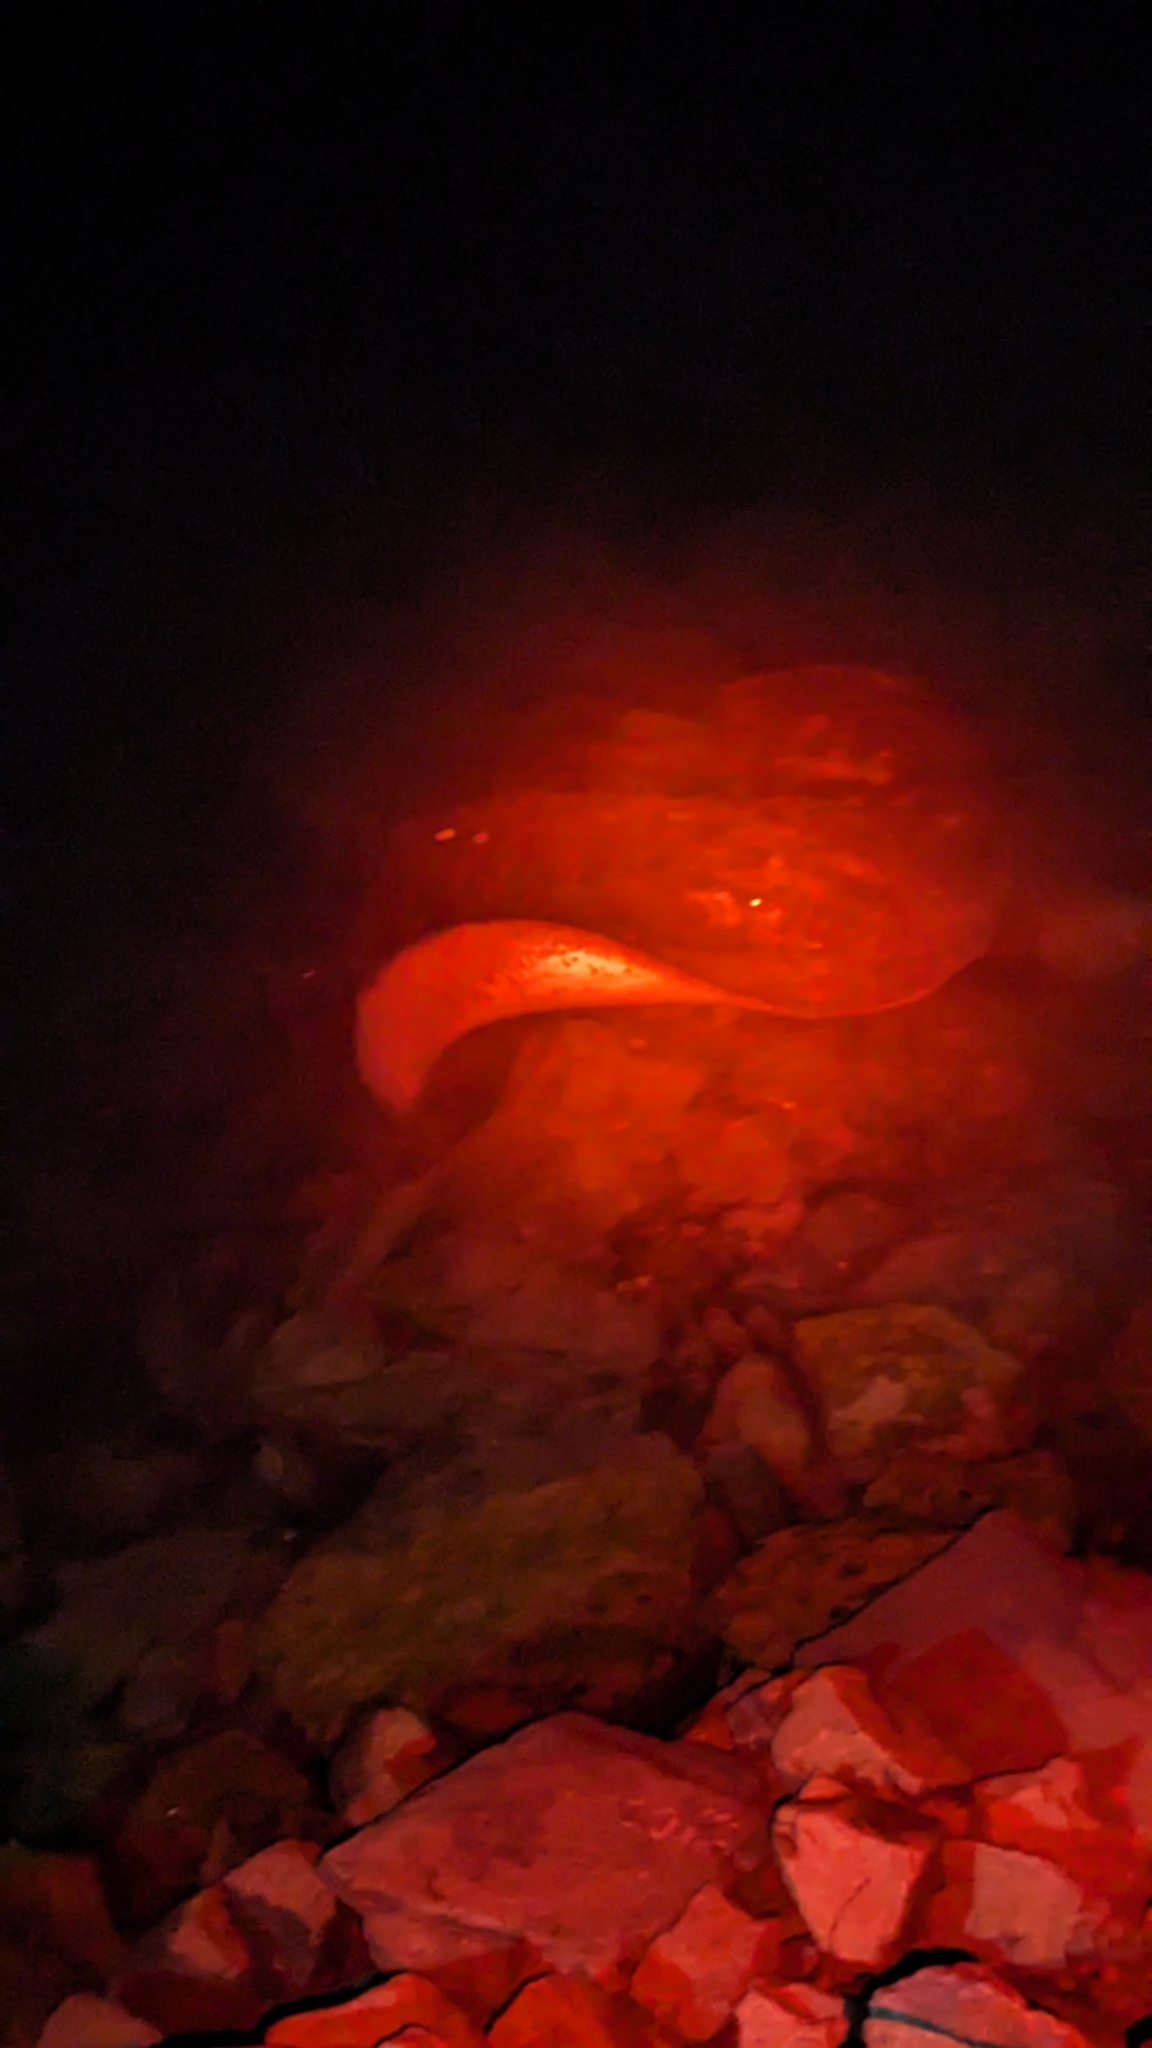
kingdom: Animalia
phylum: Chordata
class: Elasmobranchii
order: Myliobatiformes
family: Dasyatidae
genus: Bathytoshia
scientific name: Bathytoshia brevicaudata
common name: Short-tail stingray
